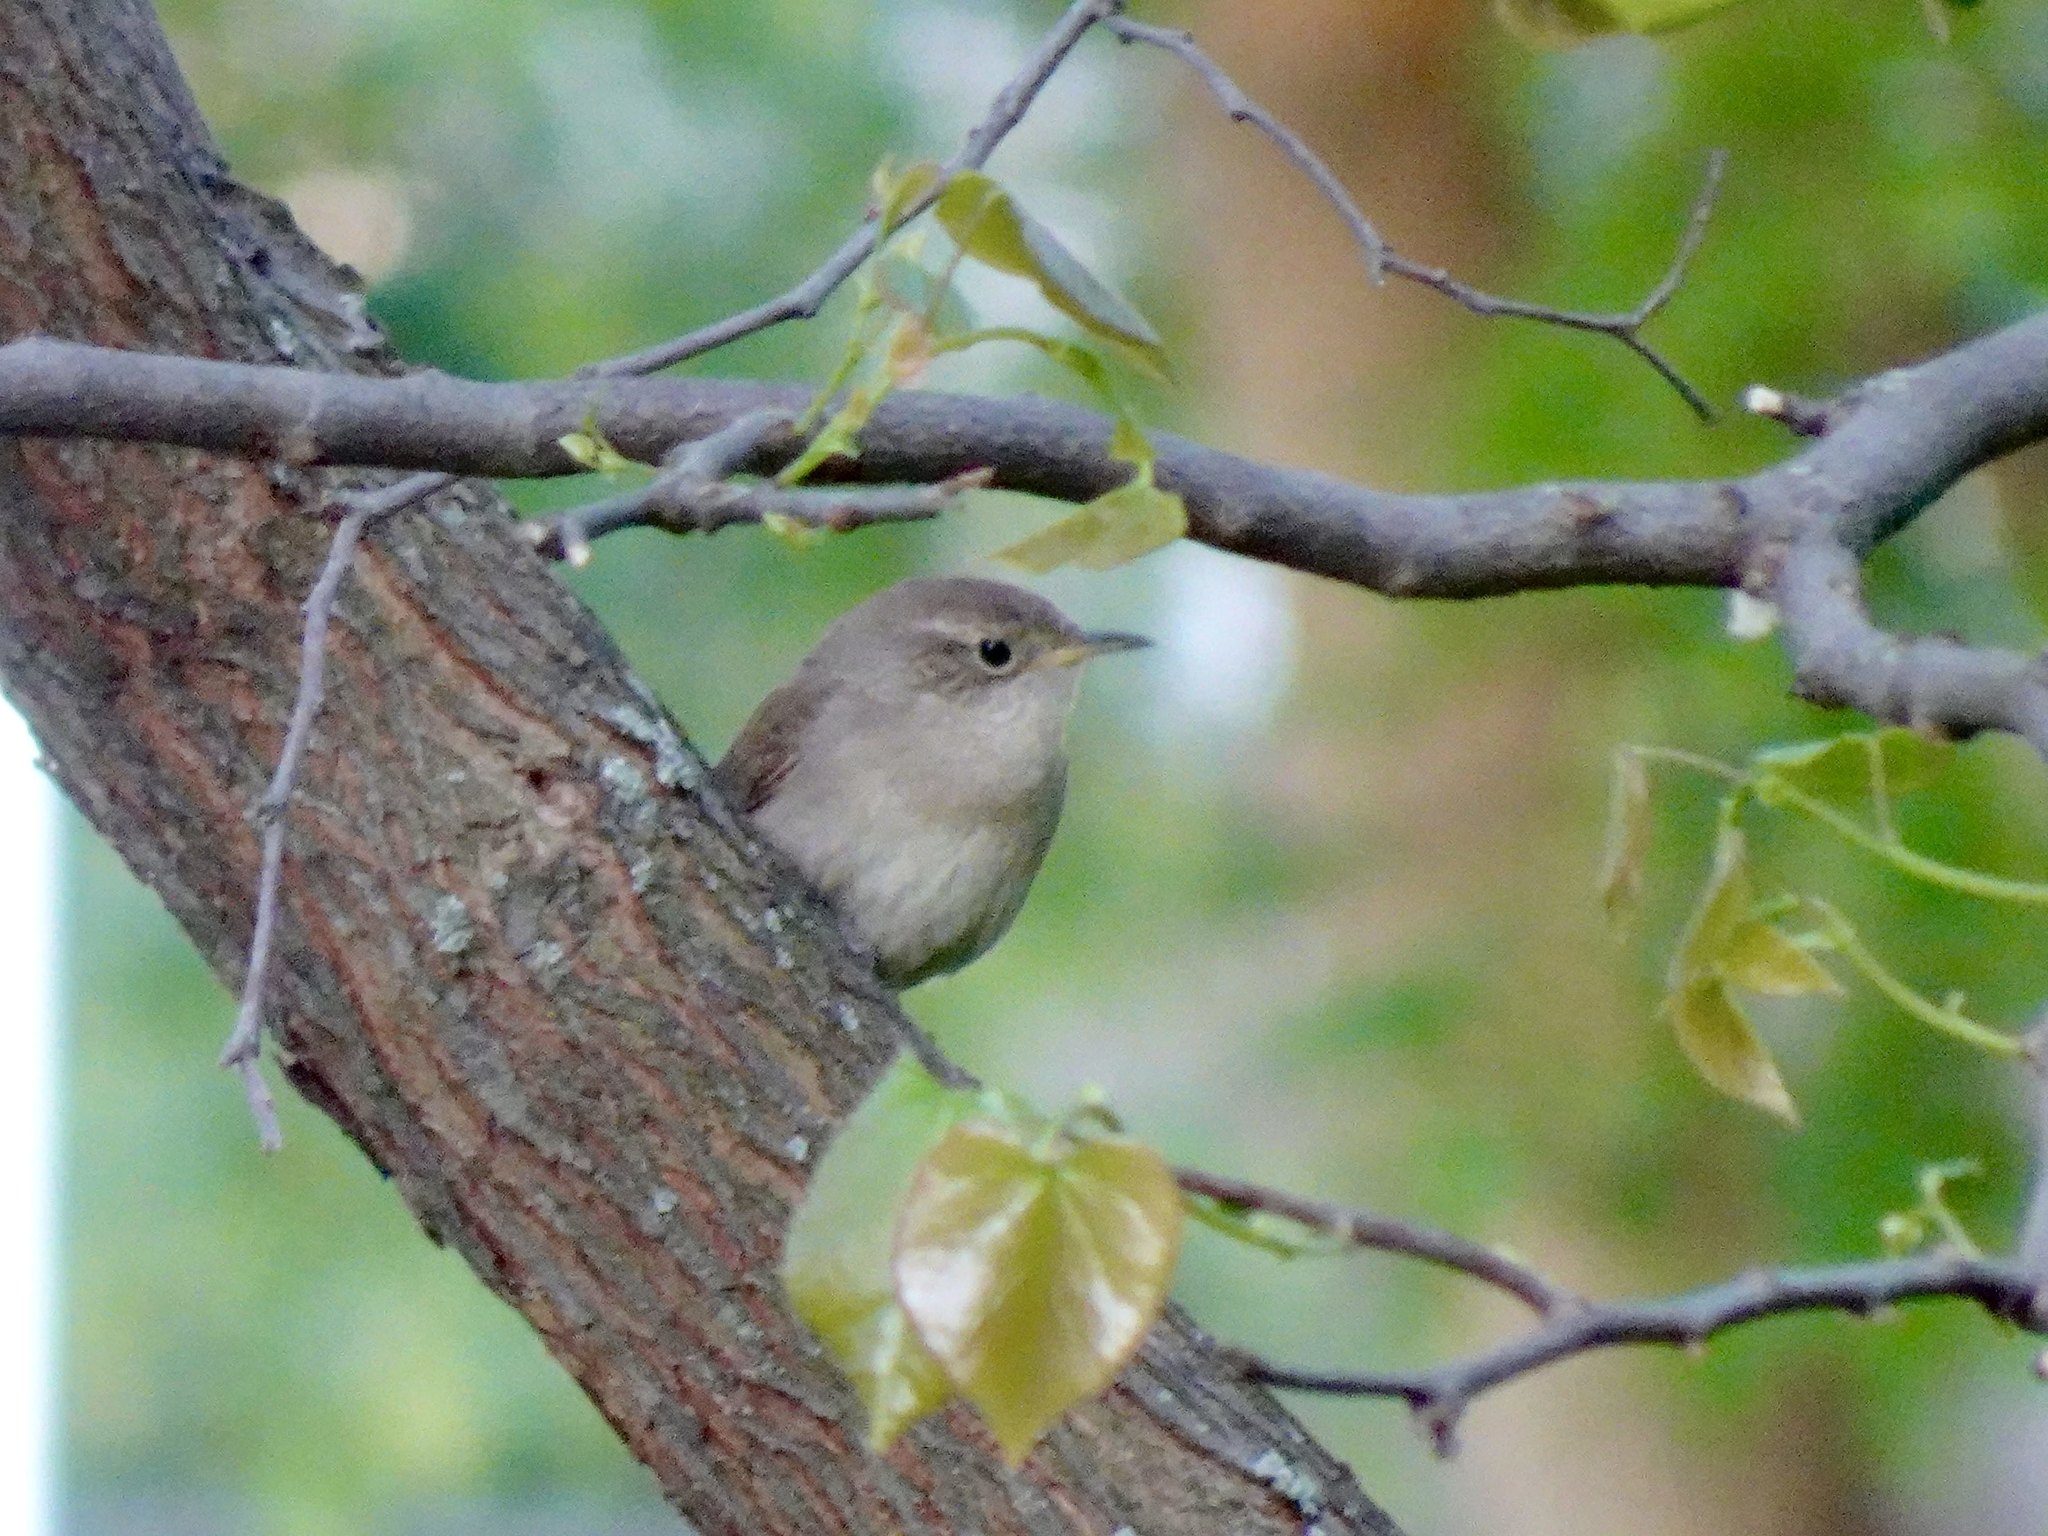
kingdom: Animalia
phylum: Chordata
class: Aves
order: Passeriformes
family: Troglodytidae
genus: Troglodytes
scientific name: Troglodytes aedon
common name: House wren
